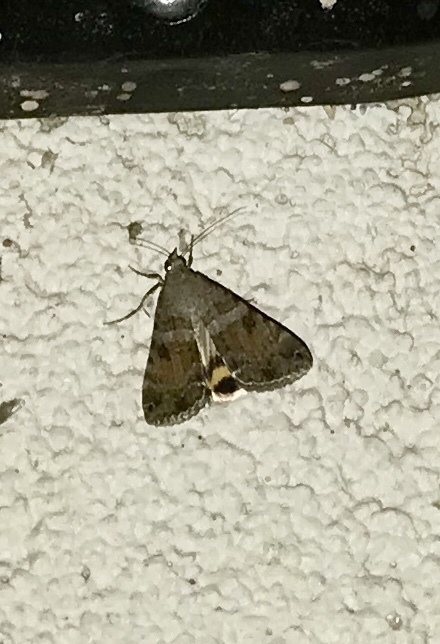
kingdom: Animalia
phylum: Arthropoda
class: Insecta
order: Lepidoptera
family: Erebidae
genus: Bulia
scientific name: Bulia deducta
